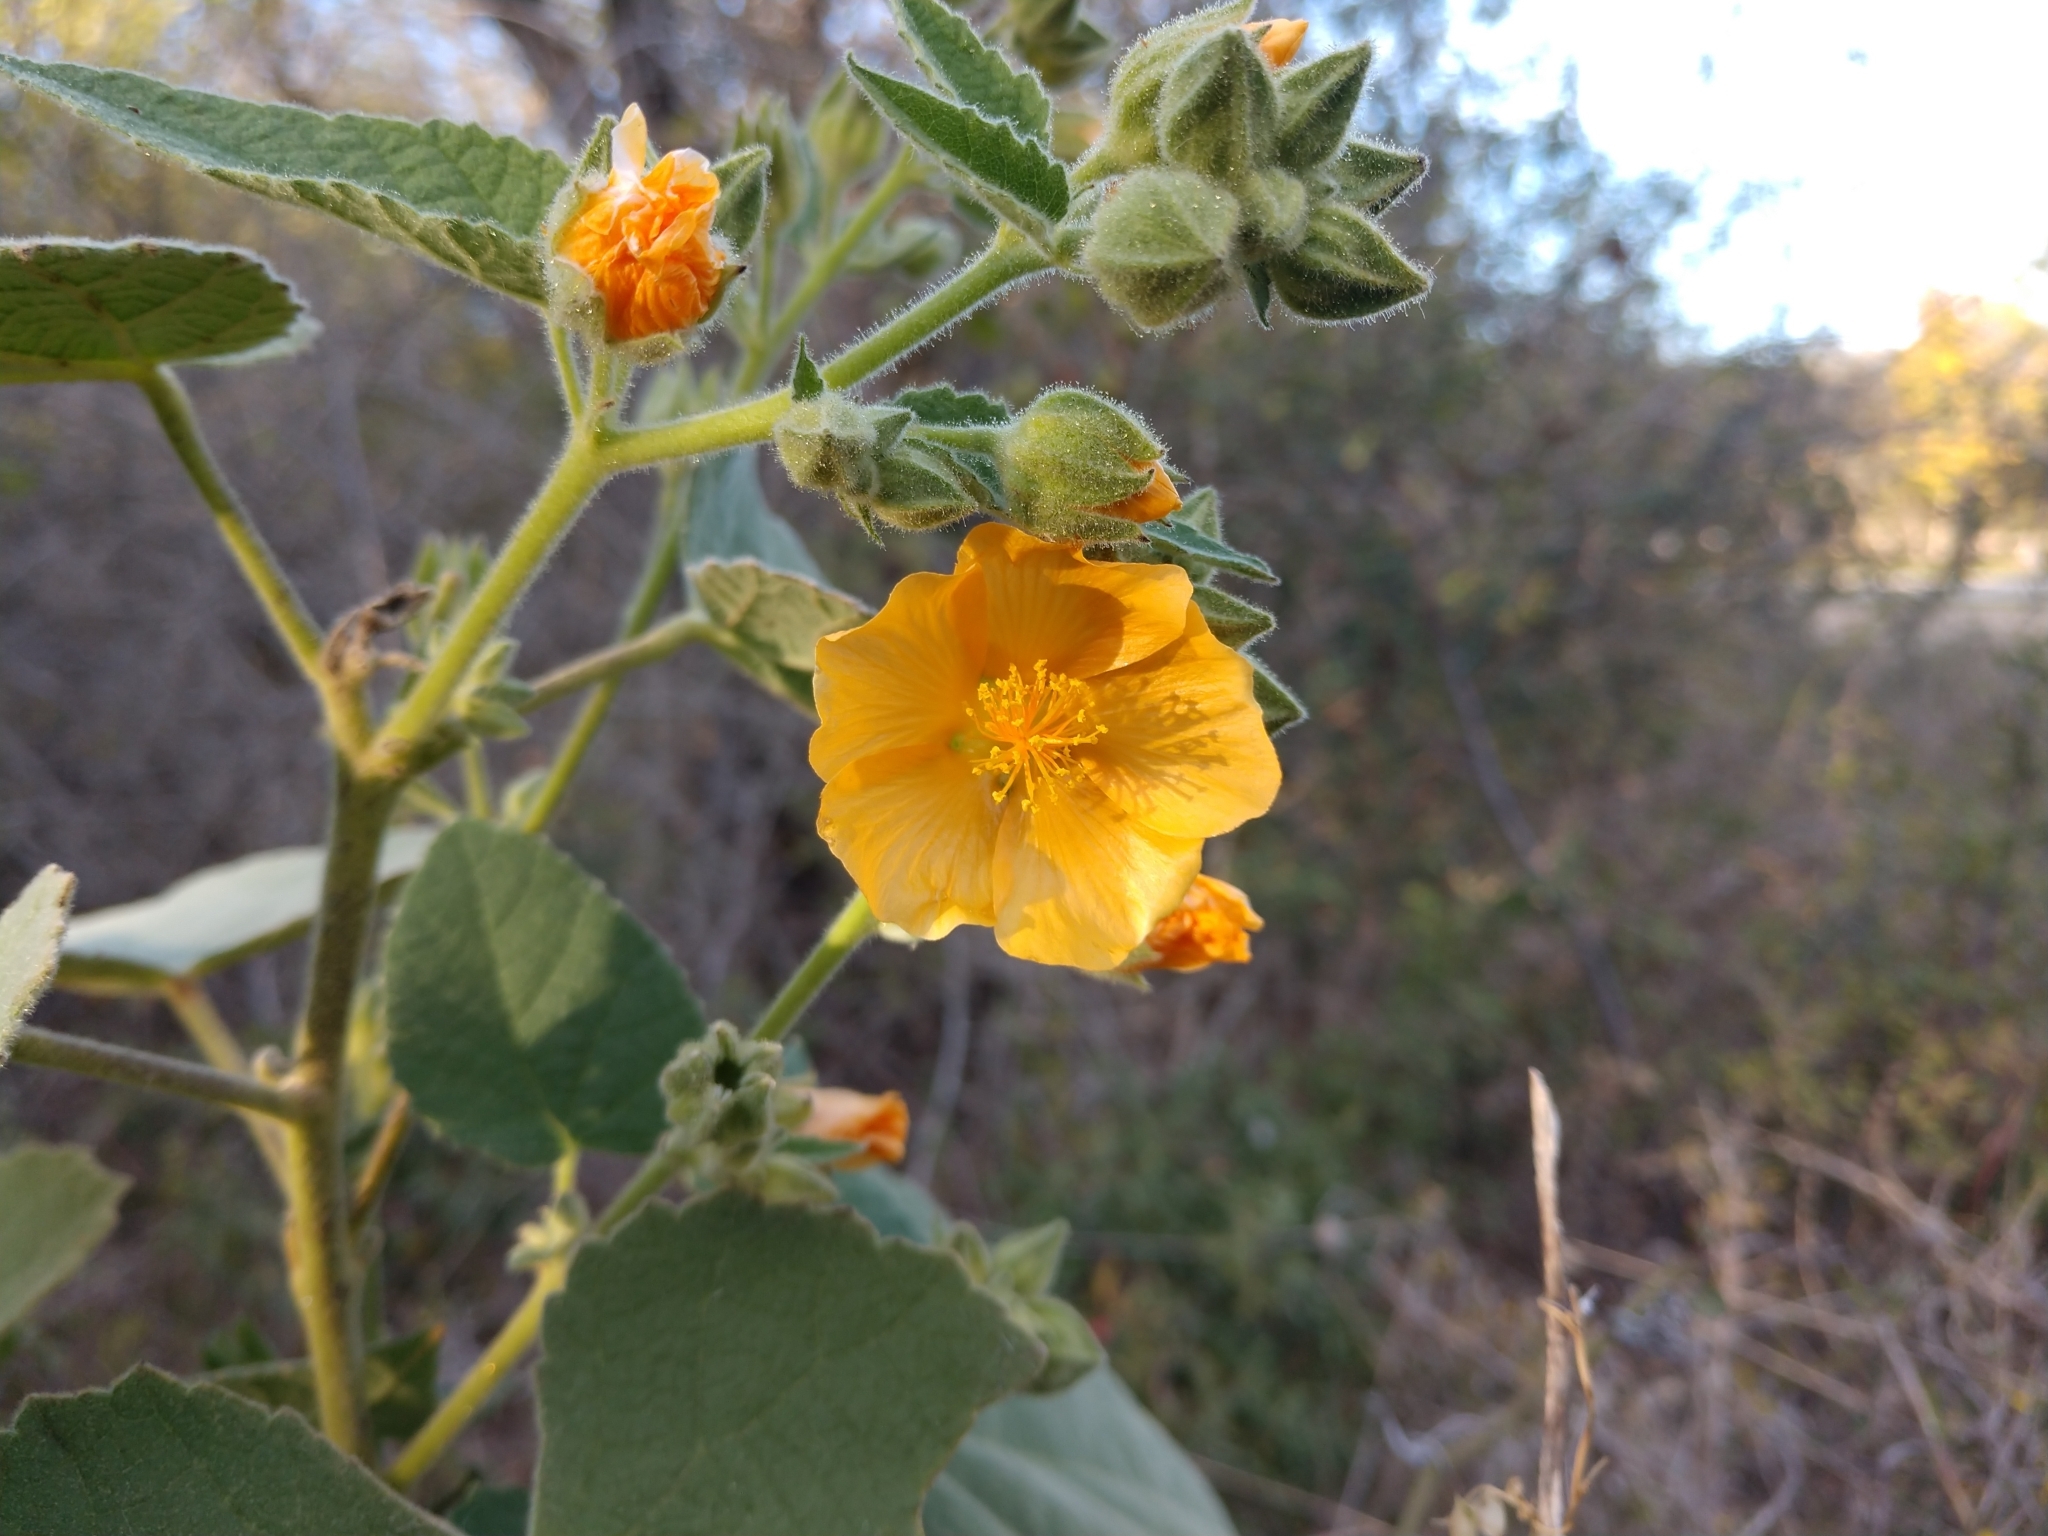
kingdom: Plantae
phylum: Tracheophyta
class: Magnoliopsida
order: Malvales
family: Malvaceae
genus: Allowissadula
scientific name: Allowissadula holosericea
